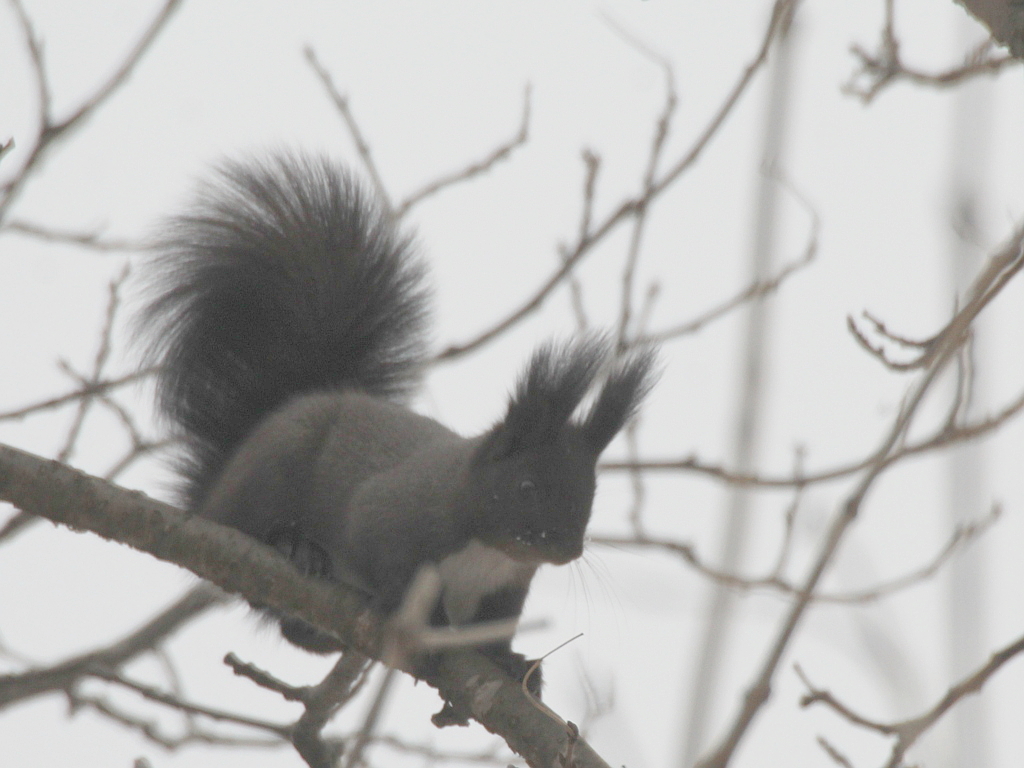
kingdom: Animalia
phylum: Chordata
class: Mammalia
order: Rodentia
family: Sciuridae
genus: Sciurus
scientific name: Sciurus vulgaris
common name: Eurasian red squirrel
